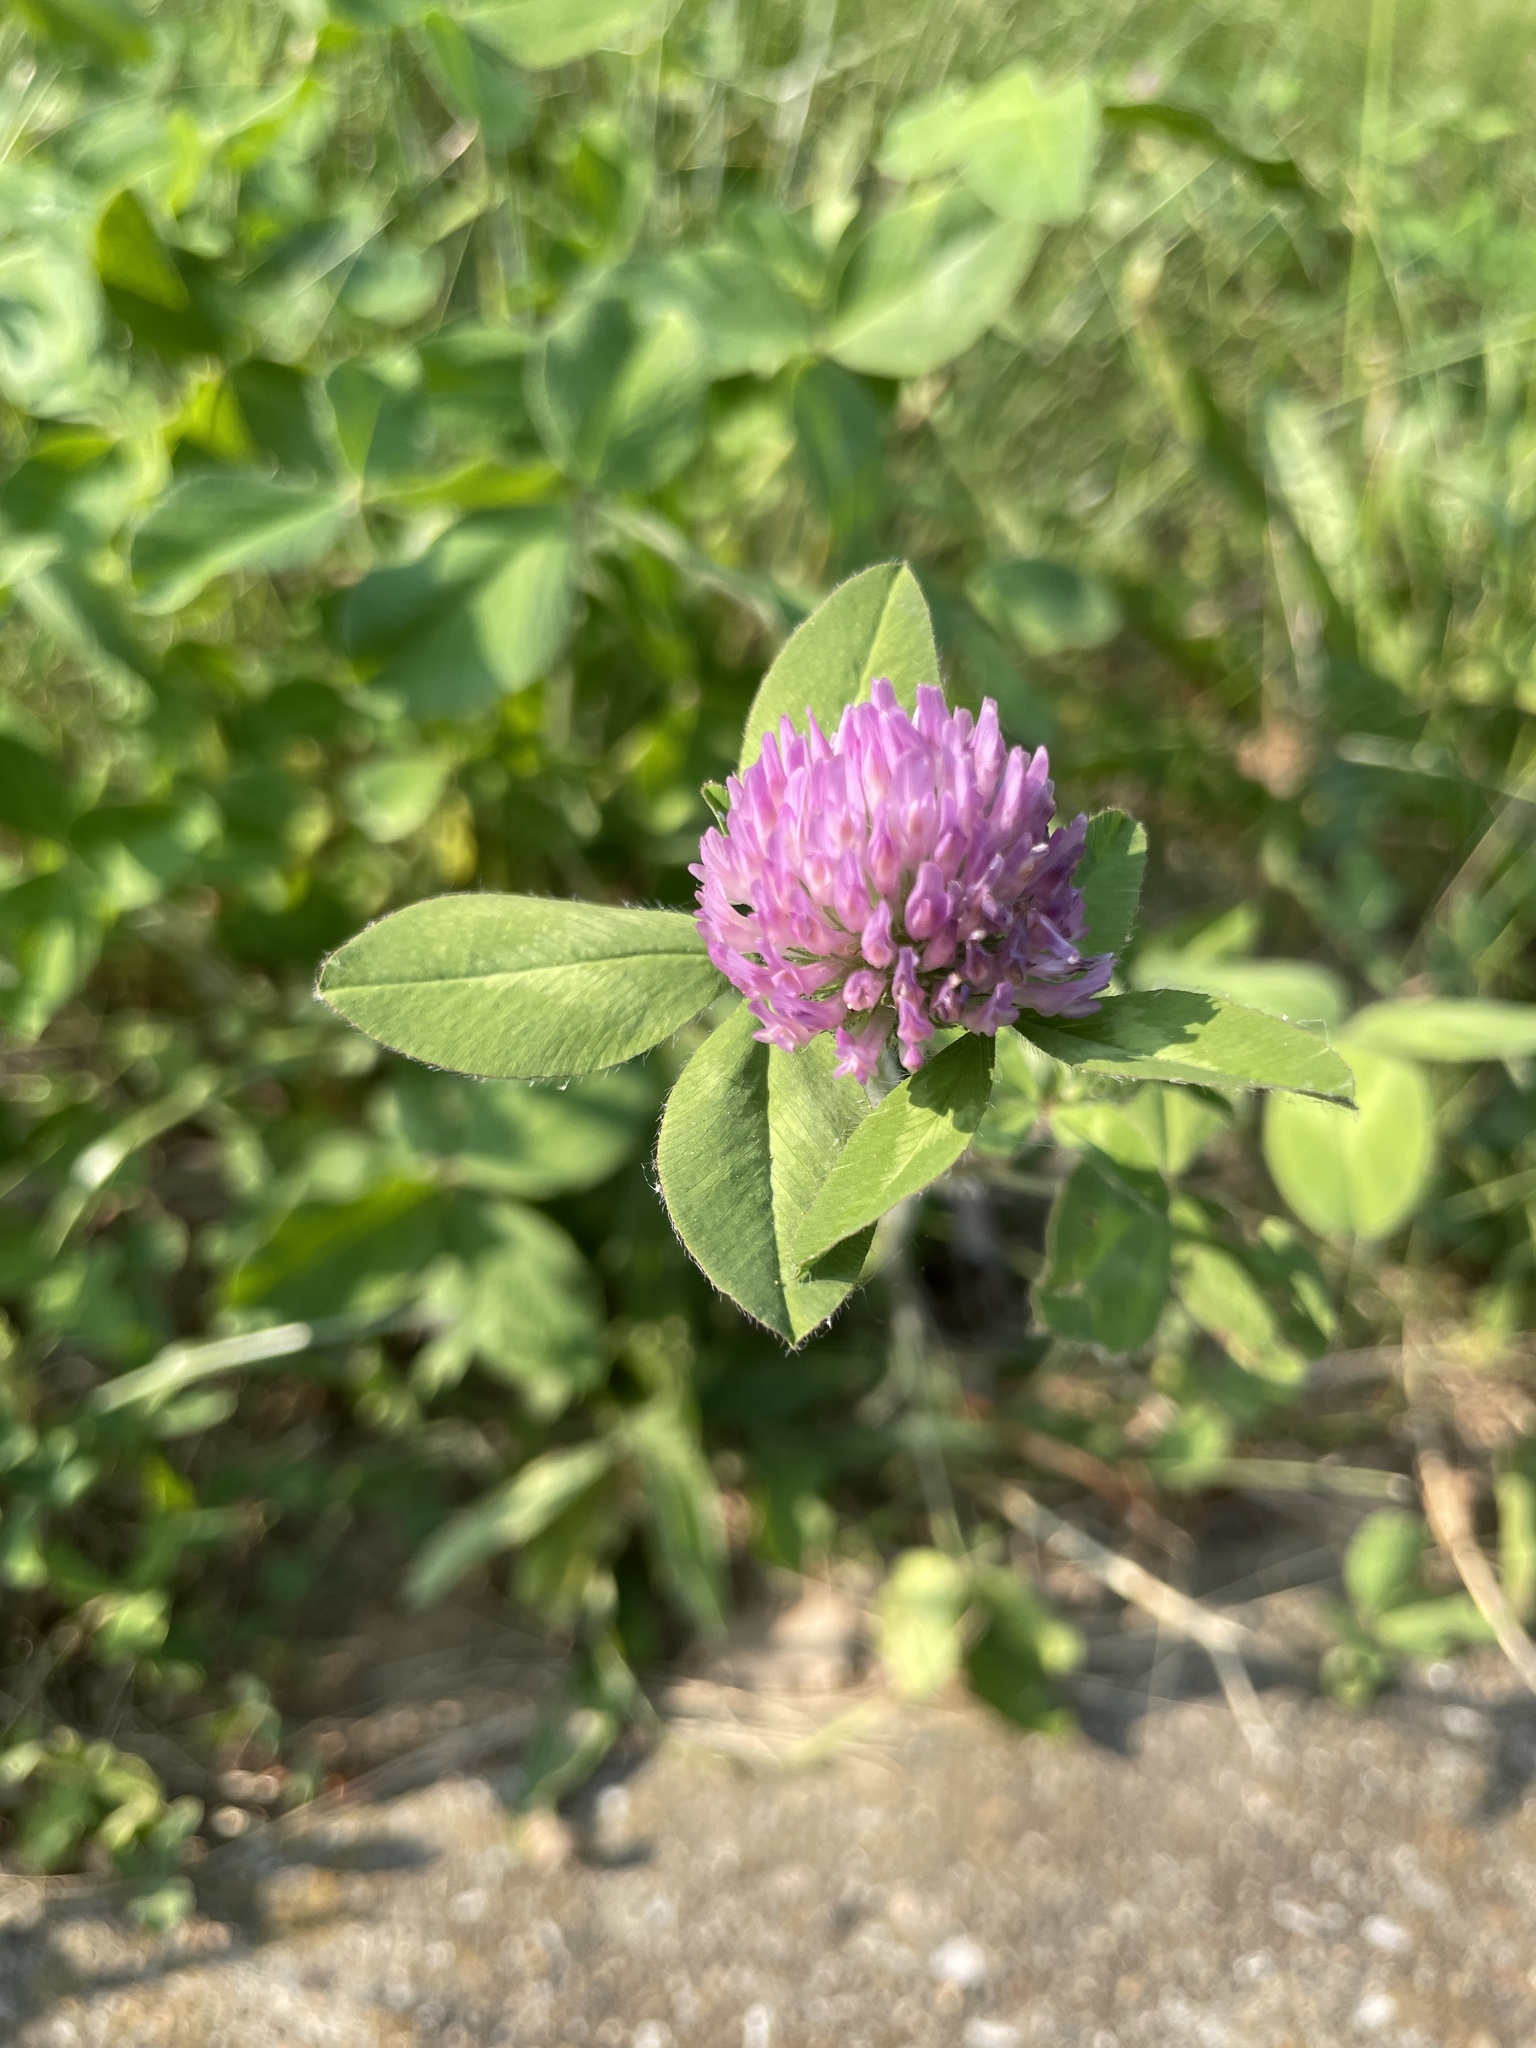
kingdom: Plantae
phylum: Tracheophyta
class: Magnoliopsida
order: Fabales
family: Fabaceae
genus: Trifolium
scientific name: Trifolium pratense
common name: Red clover
